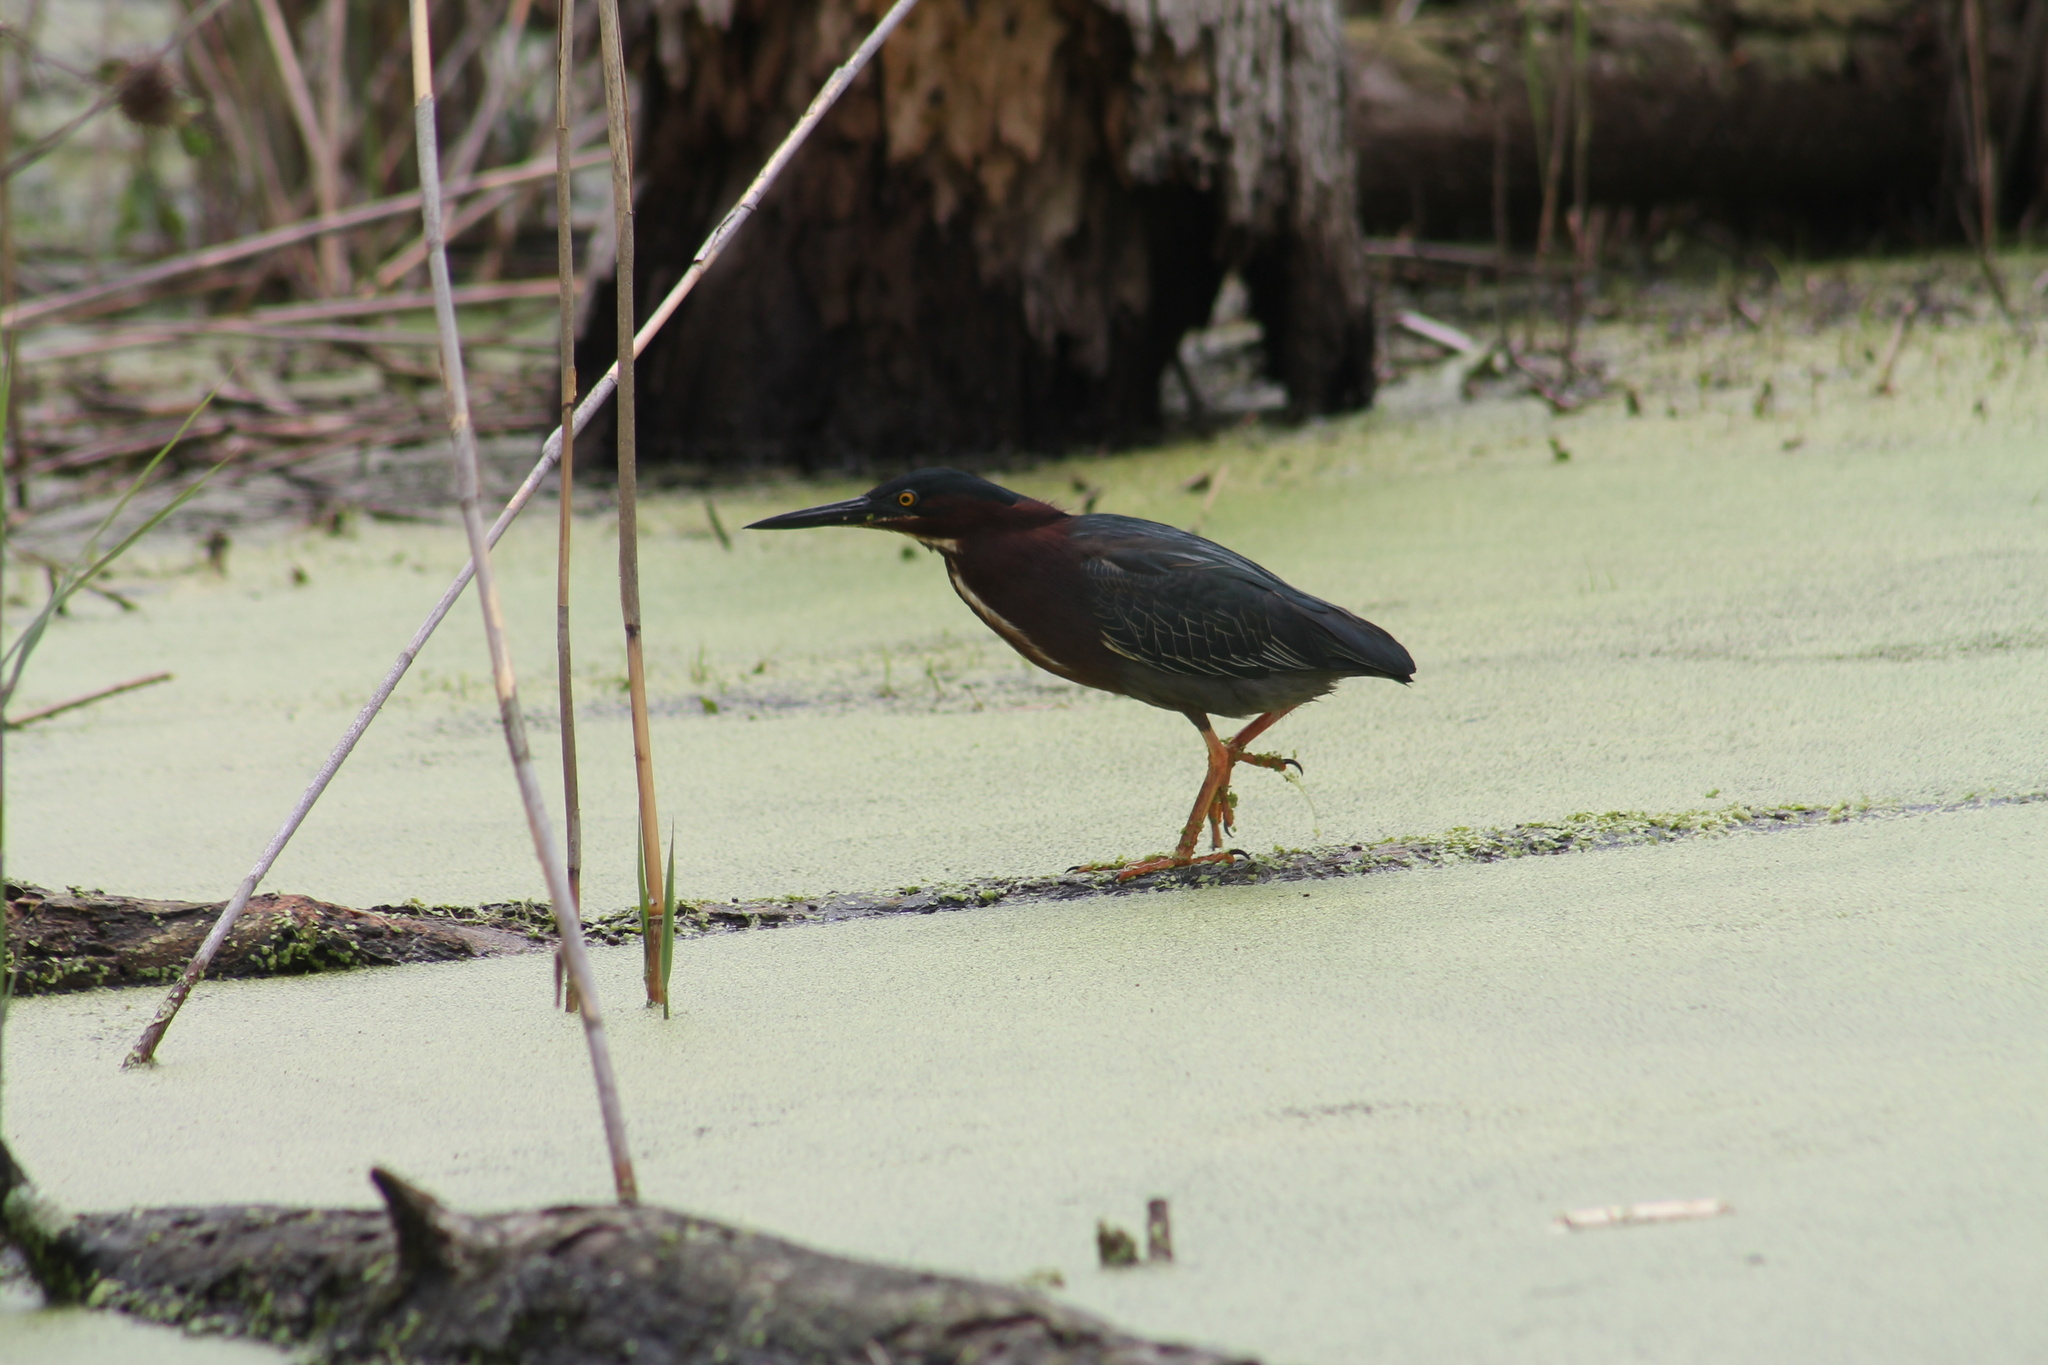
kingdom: Animalia
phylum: Chordata
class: Aves
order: Pelecaniformes
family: Ardeidae
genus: Butorides
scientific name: Butorides virescens
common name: Green heron
